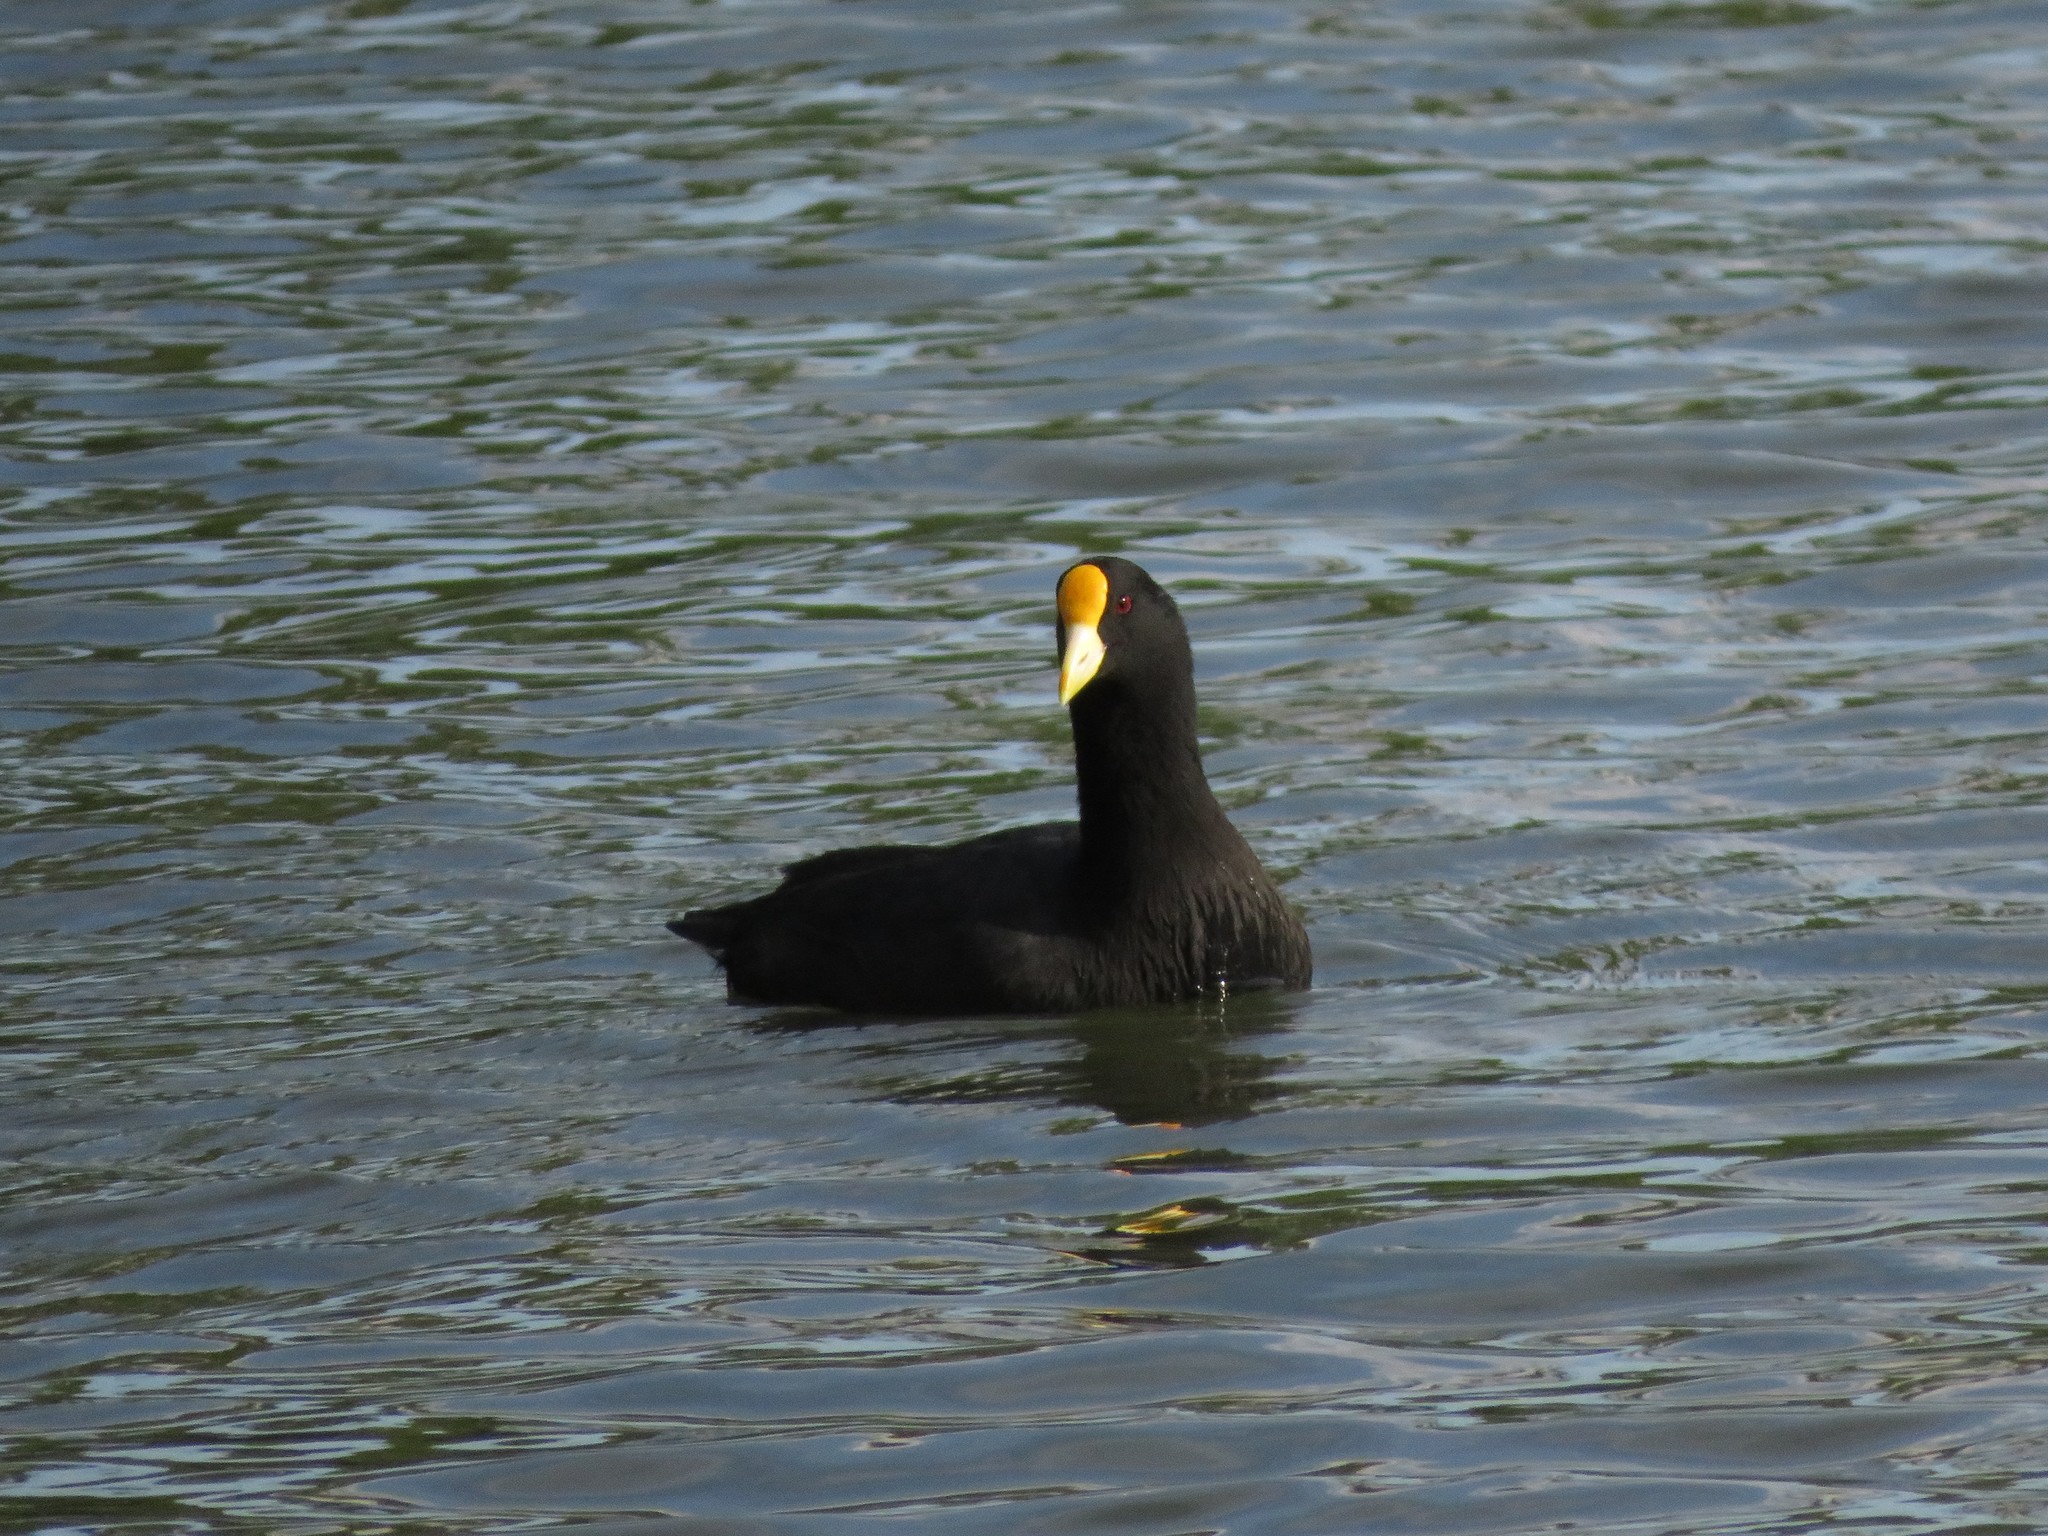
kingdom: Animalia
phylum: Chordata
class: Aves
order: Gruiformes
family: Rallidae
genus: Fulica
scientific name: Fulica leucoptera
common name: White-winged coot
